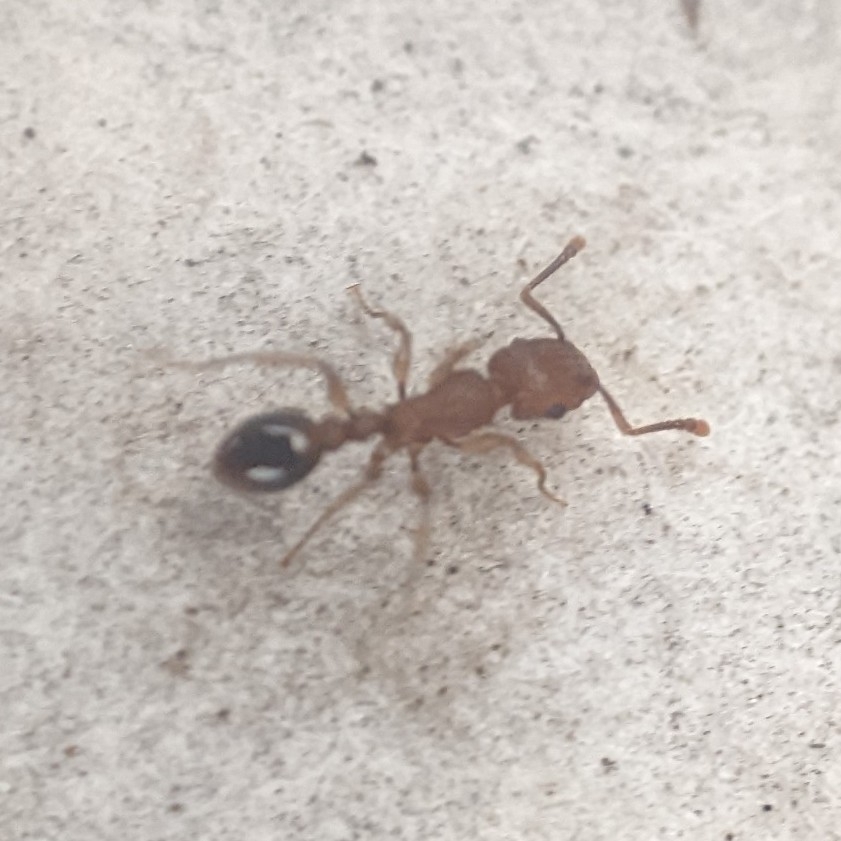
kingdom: Animalia
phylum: Arthropoda
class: Insecta
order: Hymenoptera
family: Formicidae
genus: Tetramorium
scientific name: Tetramorium bicarinatum
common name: Guinea ant
